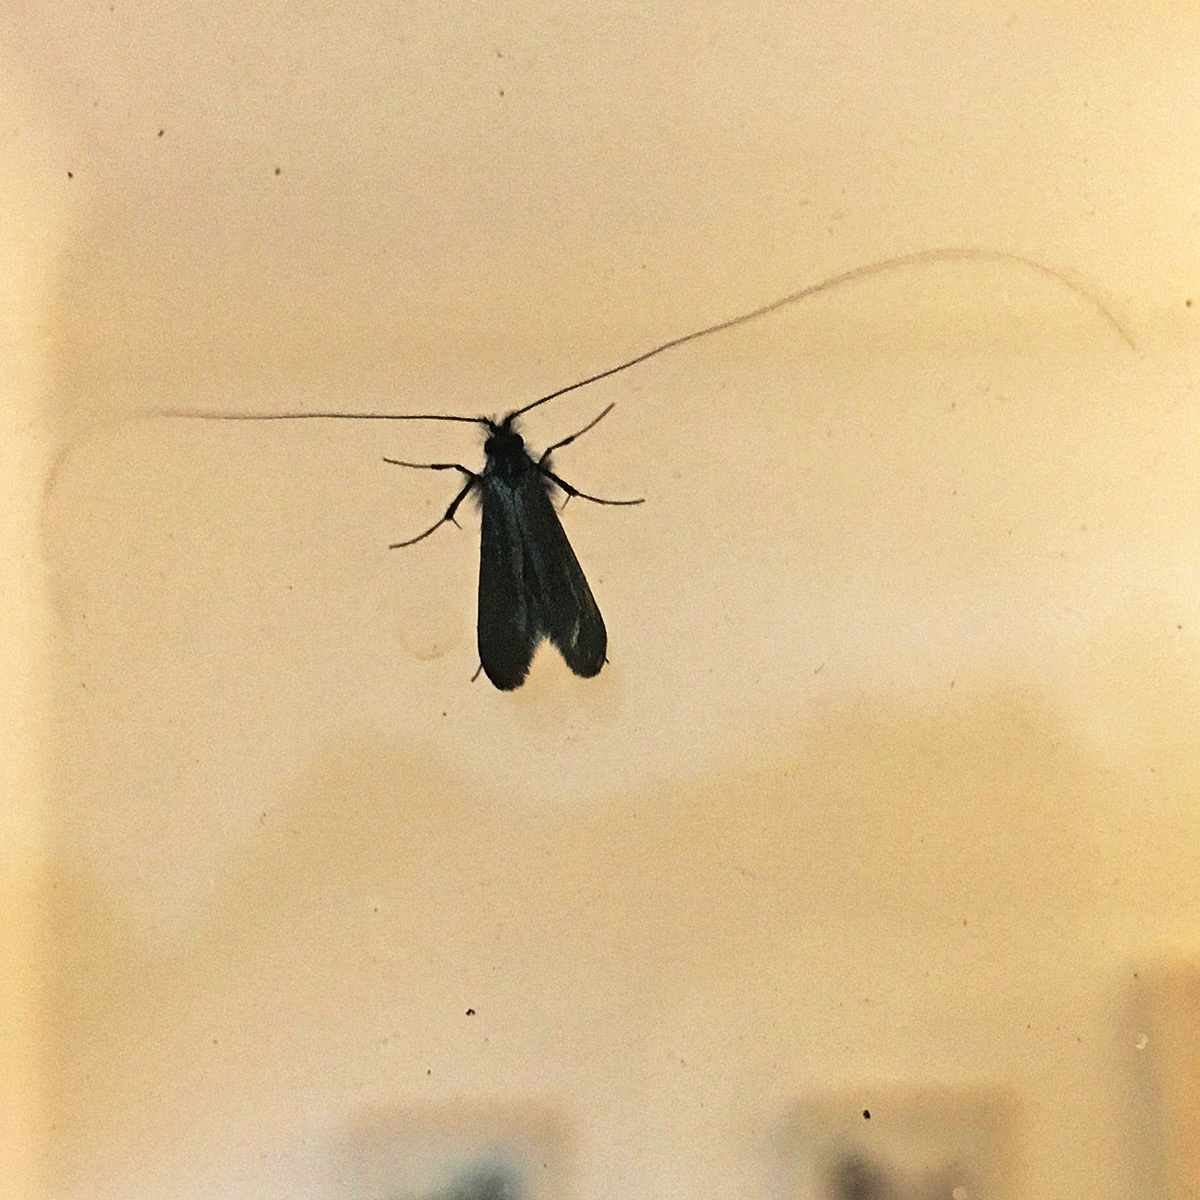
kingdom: Animalia
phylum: Arthropoda
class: Insecta
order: Lepidoptera
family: Adelidae
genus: Adela
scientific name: Adela viridella
